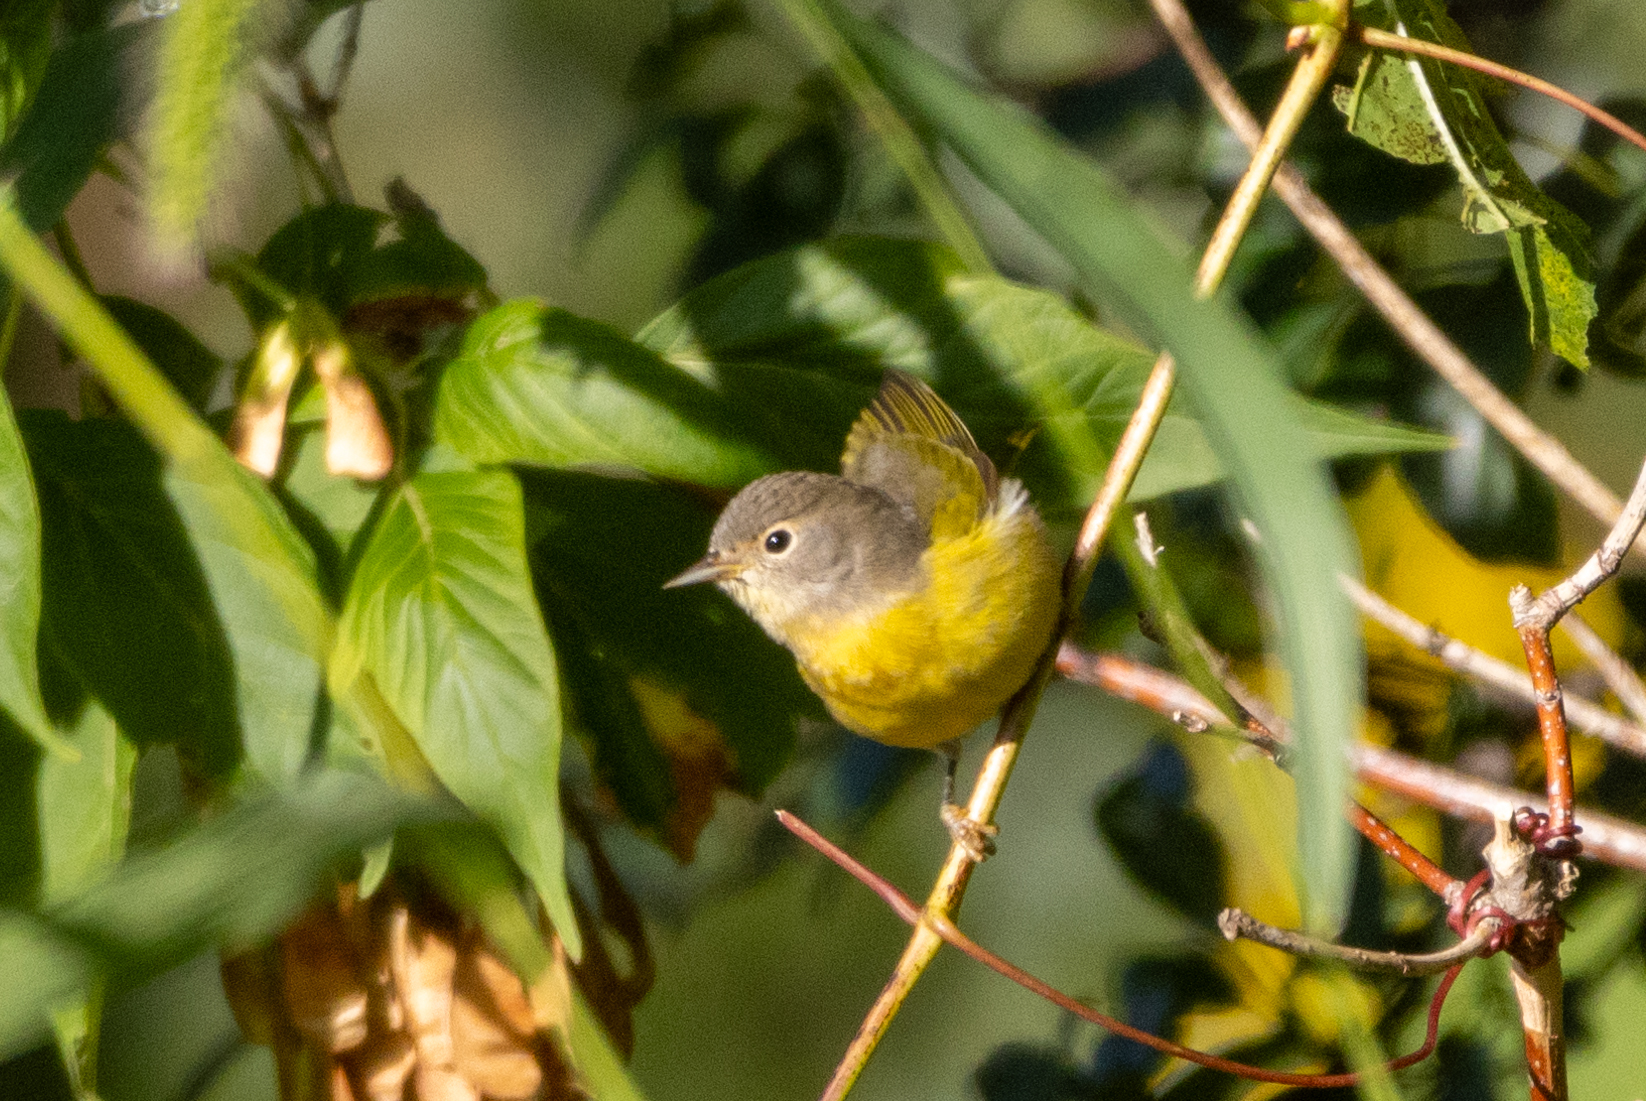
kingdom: Animalia
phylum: Chordata
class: Aves
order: Passeriformes
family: Parulidae
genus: Leiothlypis
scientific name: Leiothlypis ruficapilla
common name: Nashville warbler
